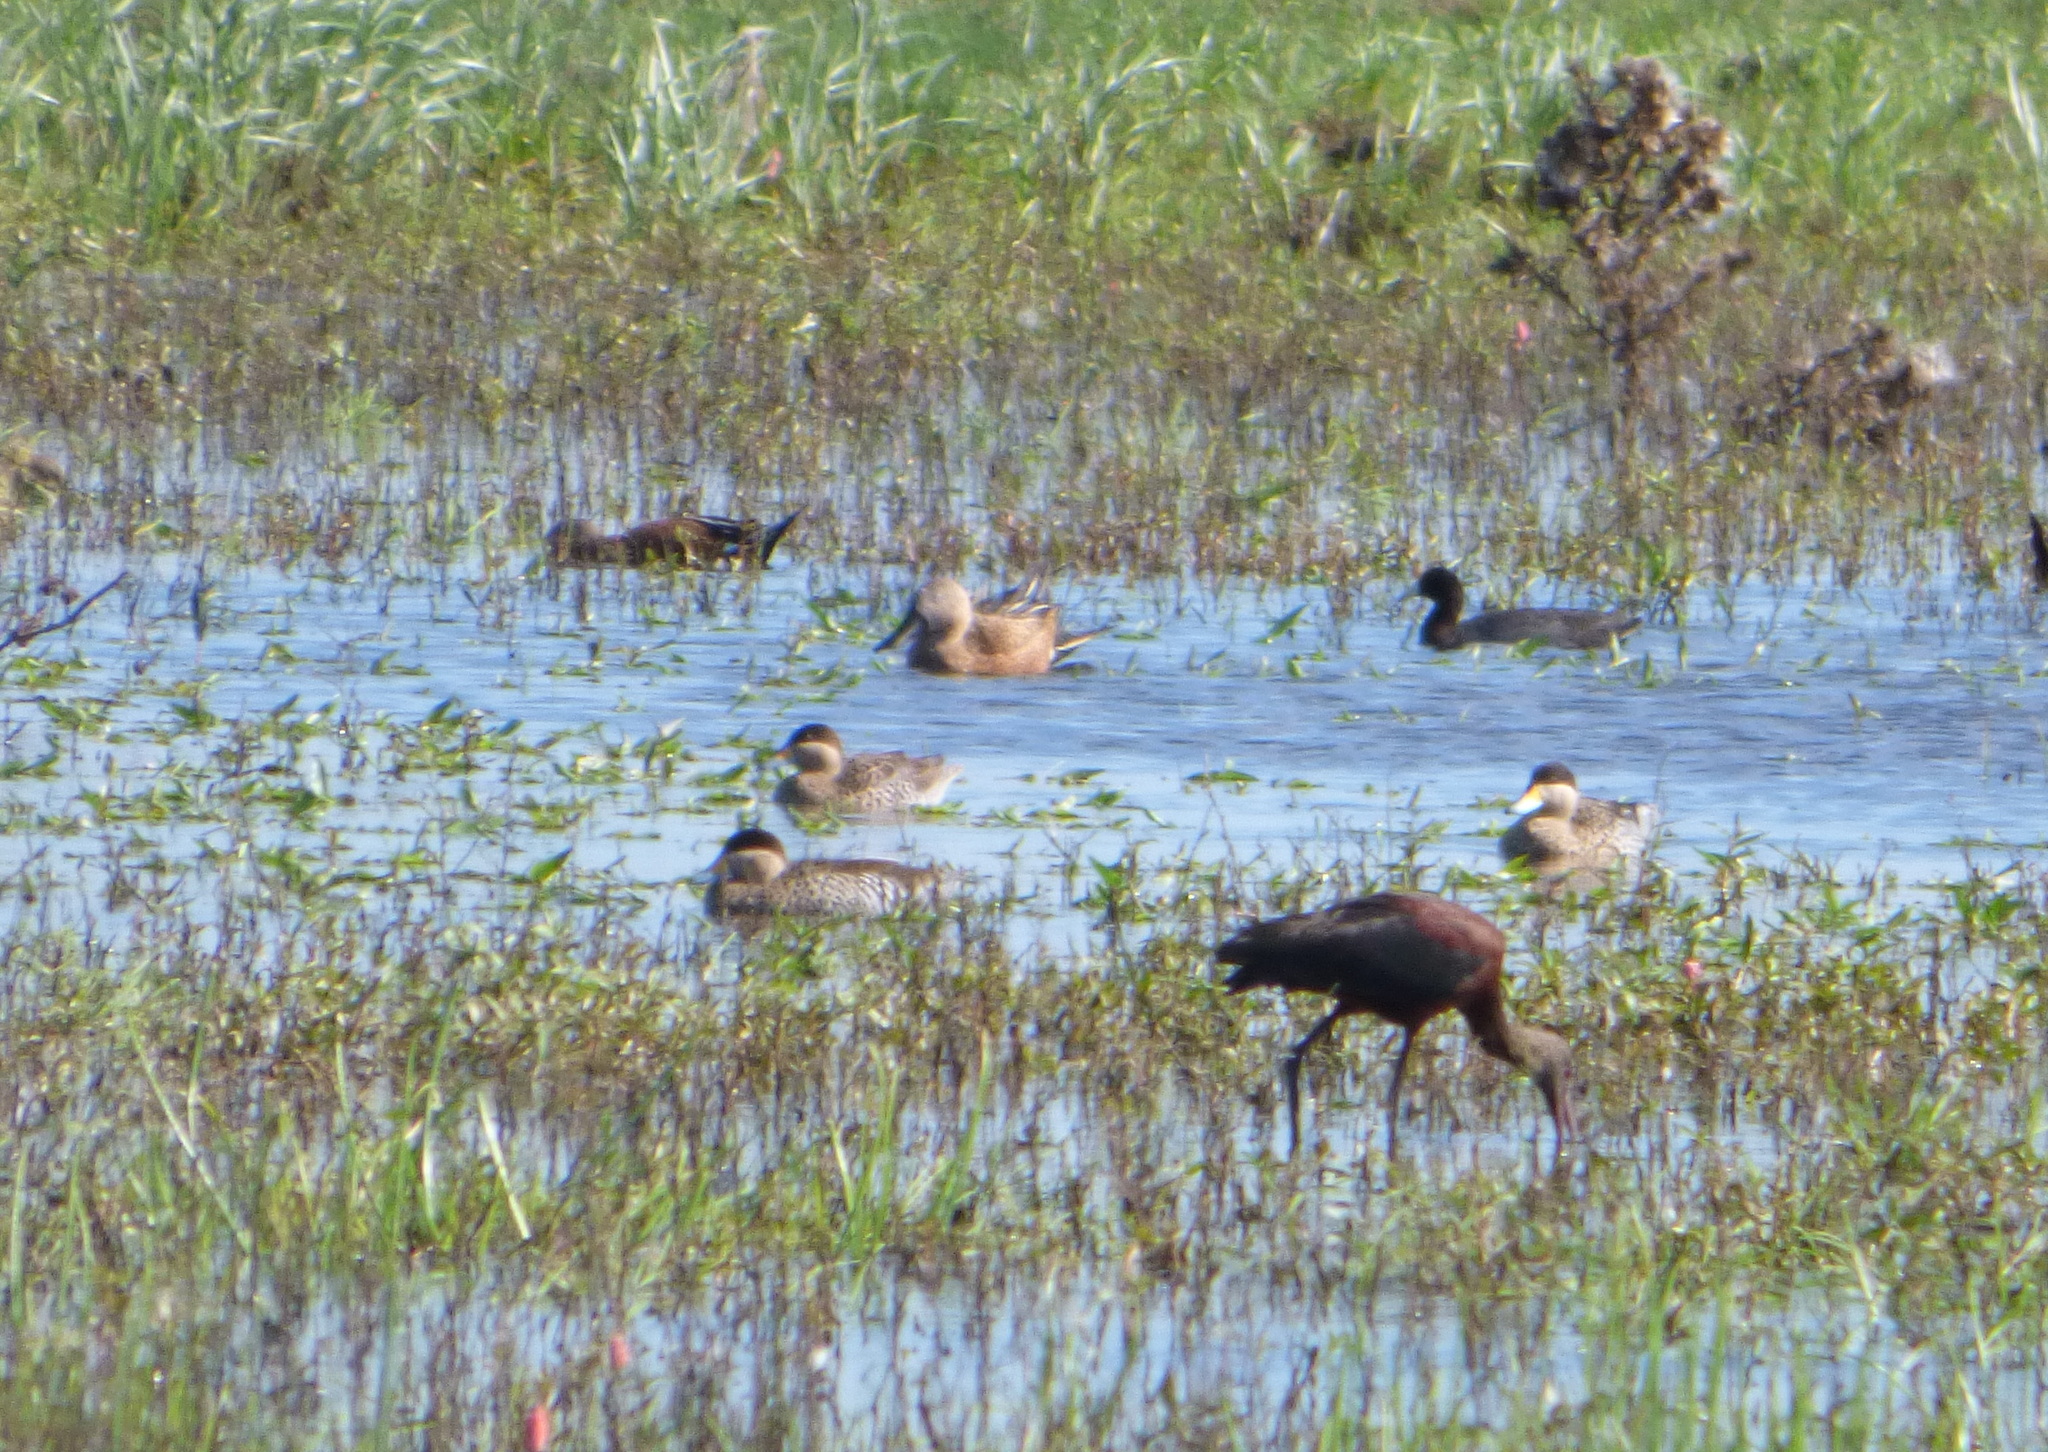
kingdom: Animalia
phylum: Chordata
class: Aves
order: Anseriformes
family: Anatidae
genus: Spatula
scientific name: Spatula platalea
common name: Red shoveler
